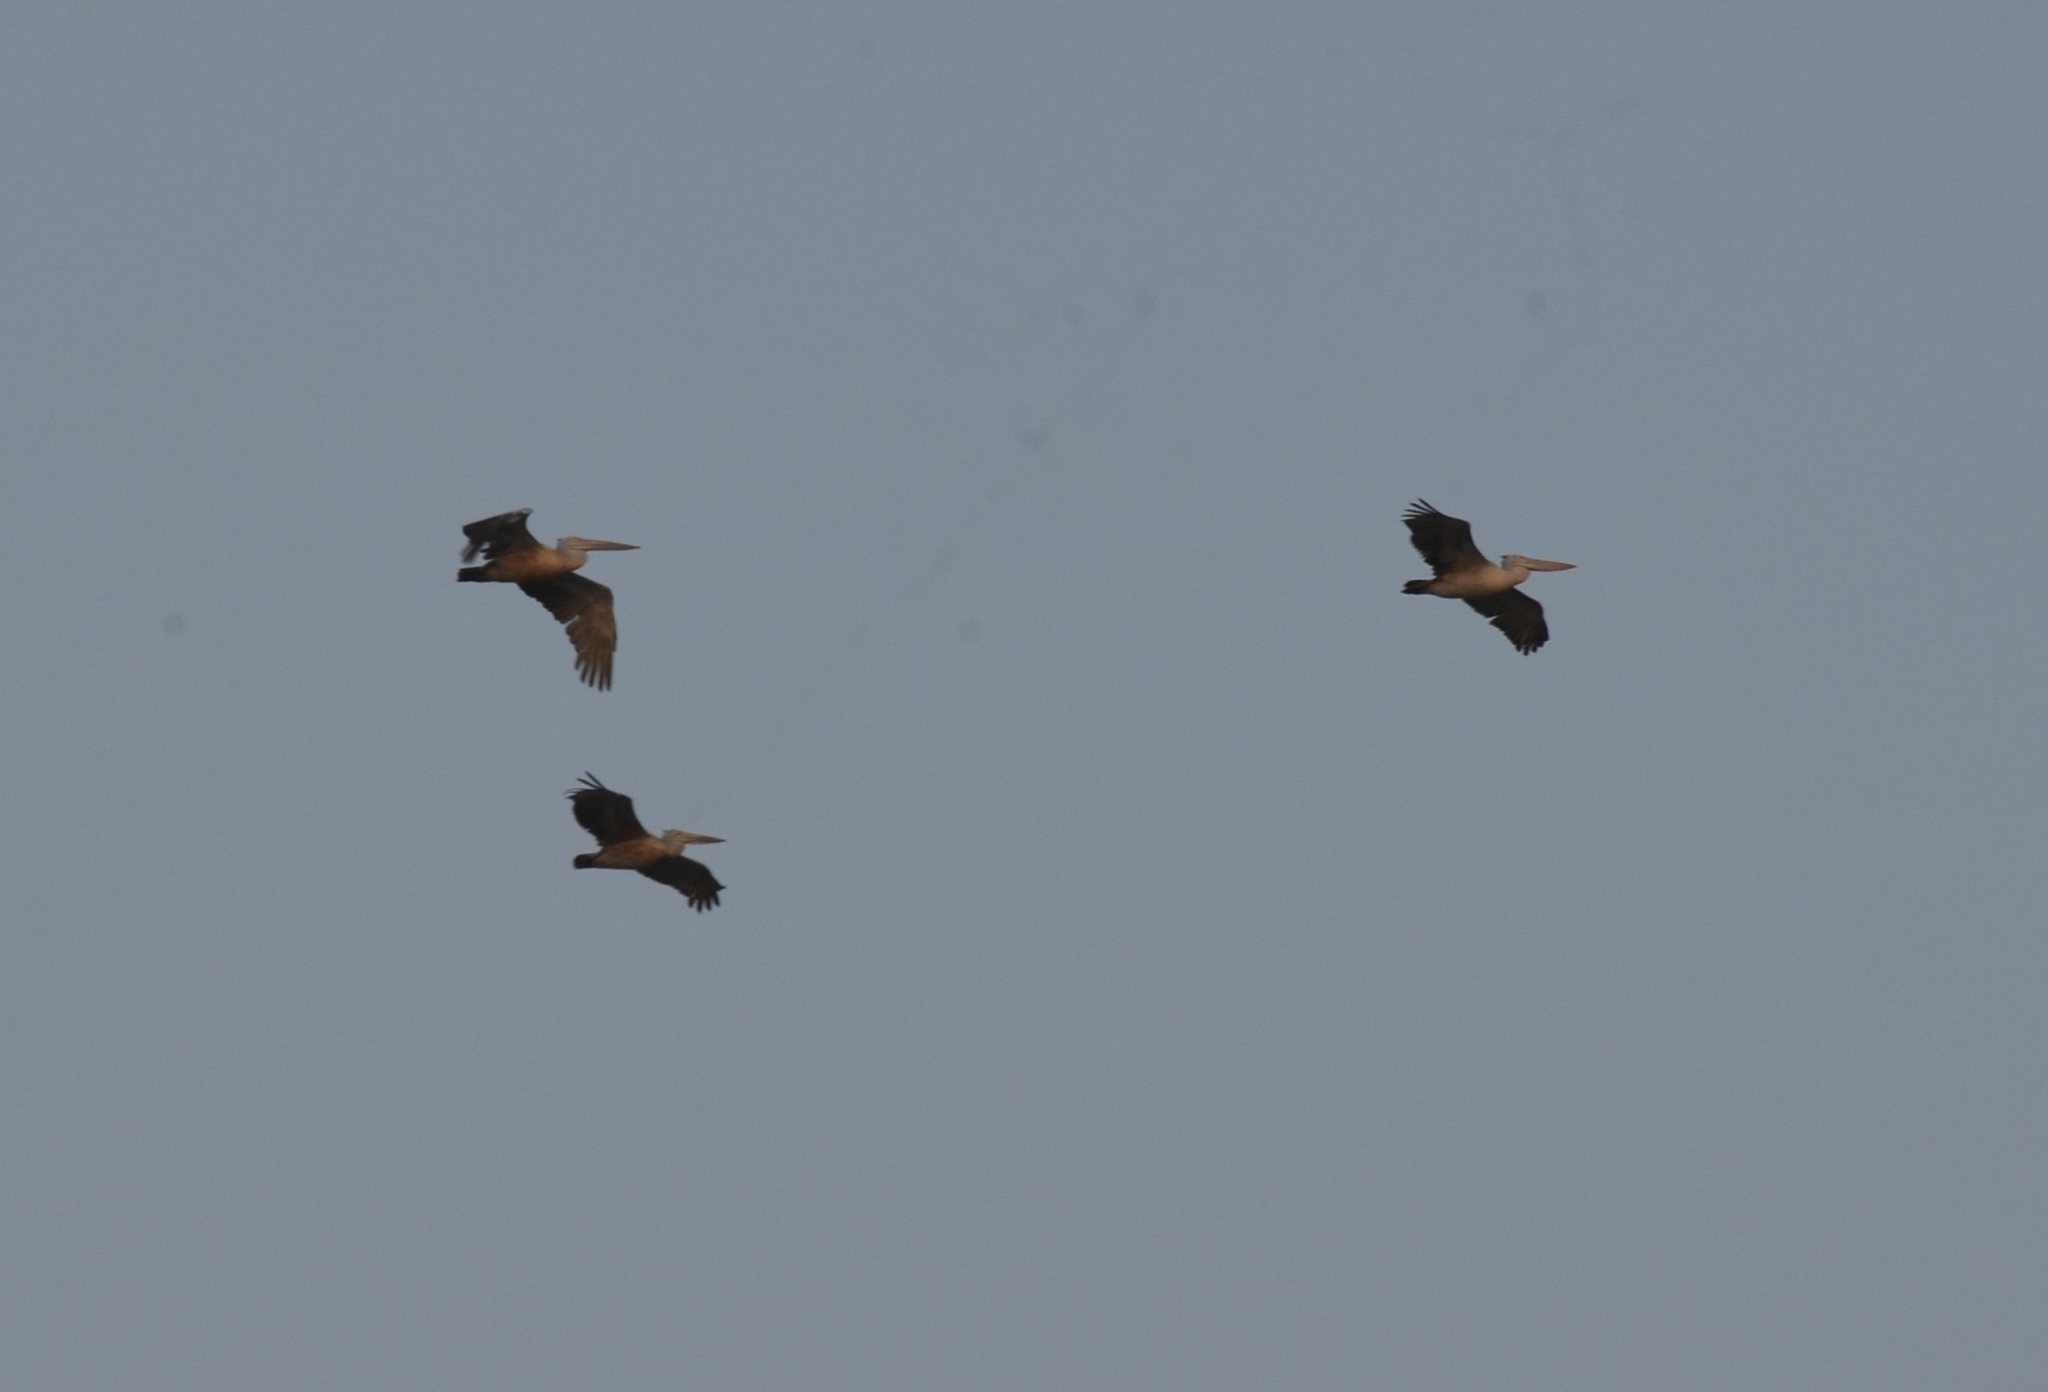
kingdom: Animalia
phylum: Chordata
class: Aves
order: Pelecaniformes
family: Pelecanidae
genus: Pelecanus
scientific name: Pelecanus philippensis
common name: Spot-billed pelican
